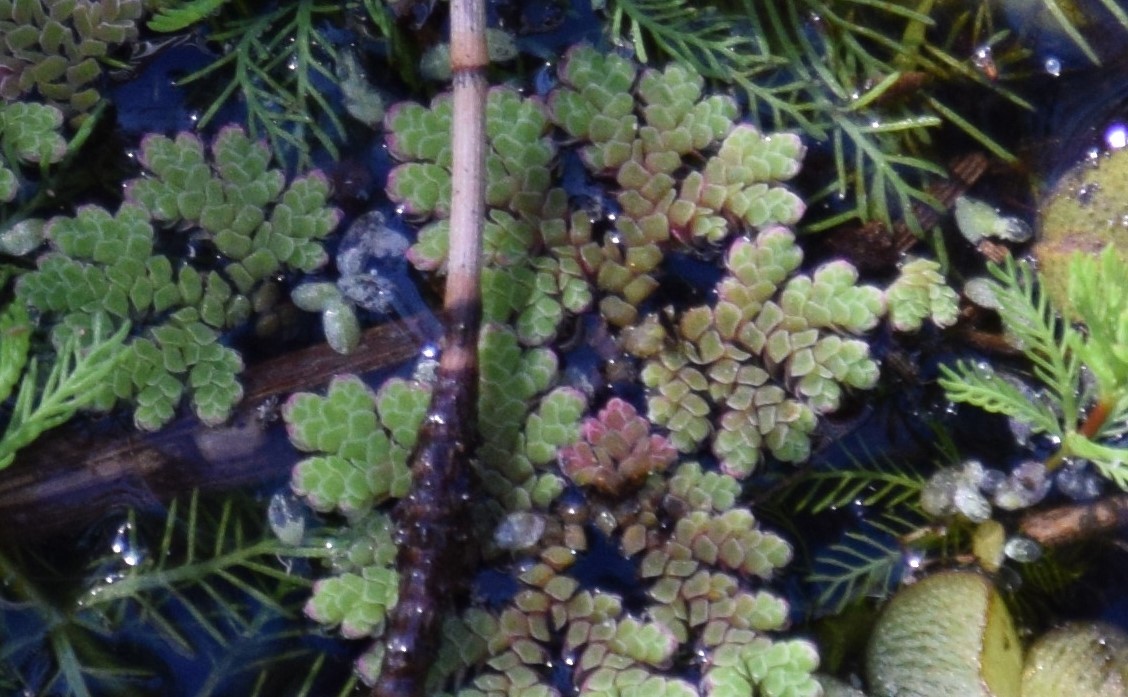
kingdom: Plantae
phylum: Tracheophyta
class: Polypodiopsida
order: Salviniales
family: Salviniaceae
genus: Azolla
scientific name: Azolla rubra
